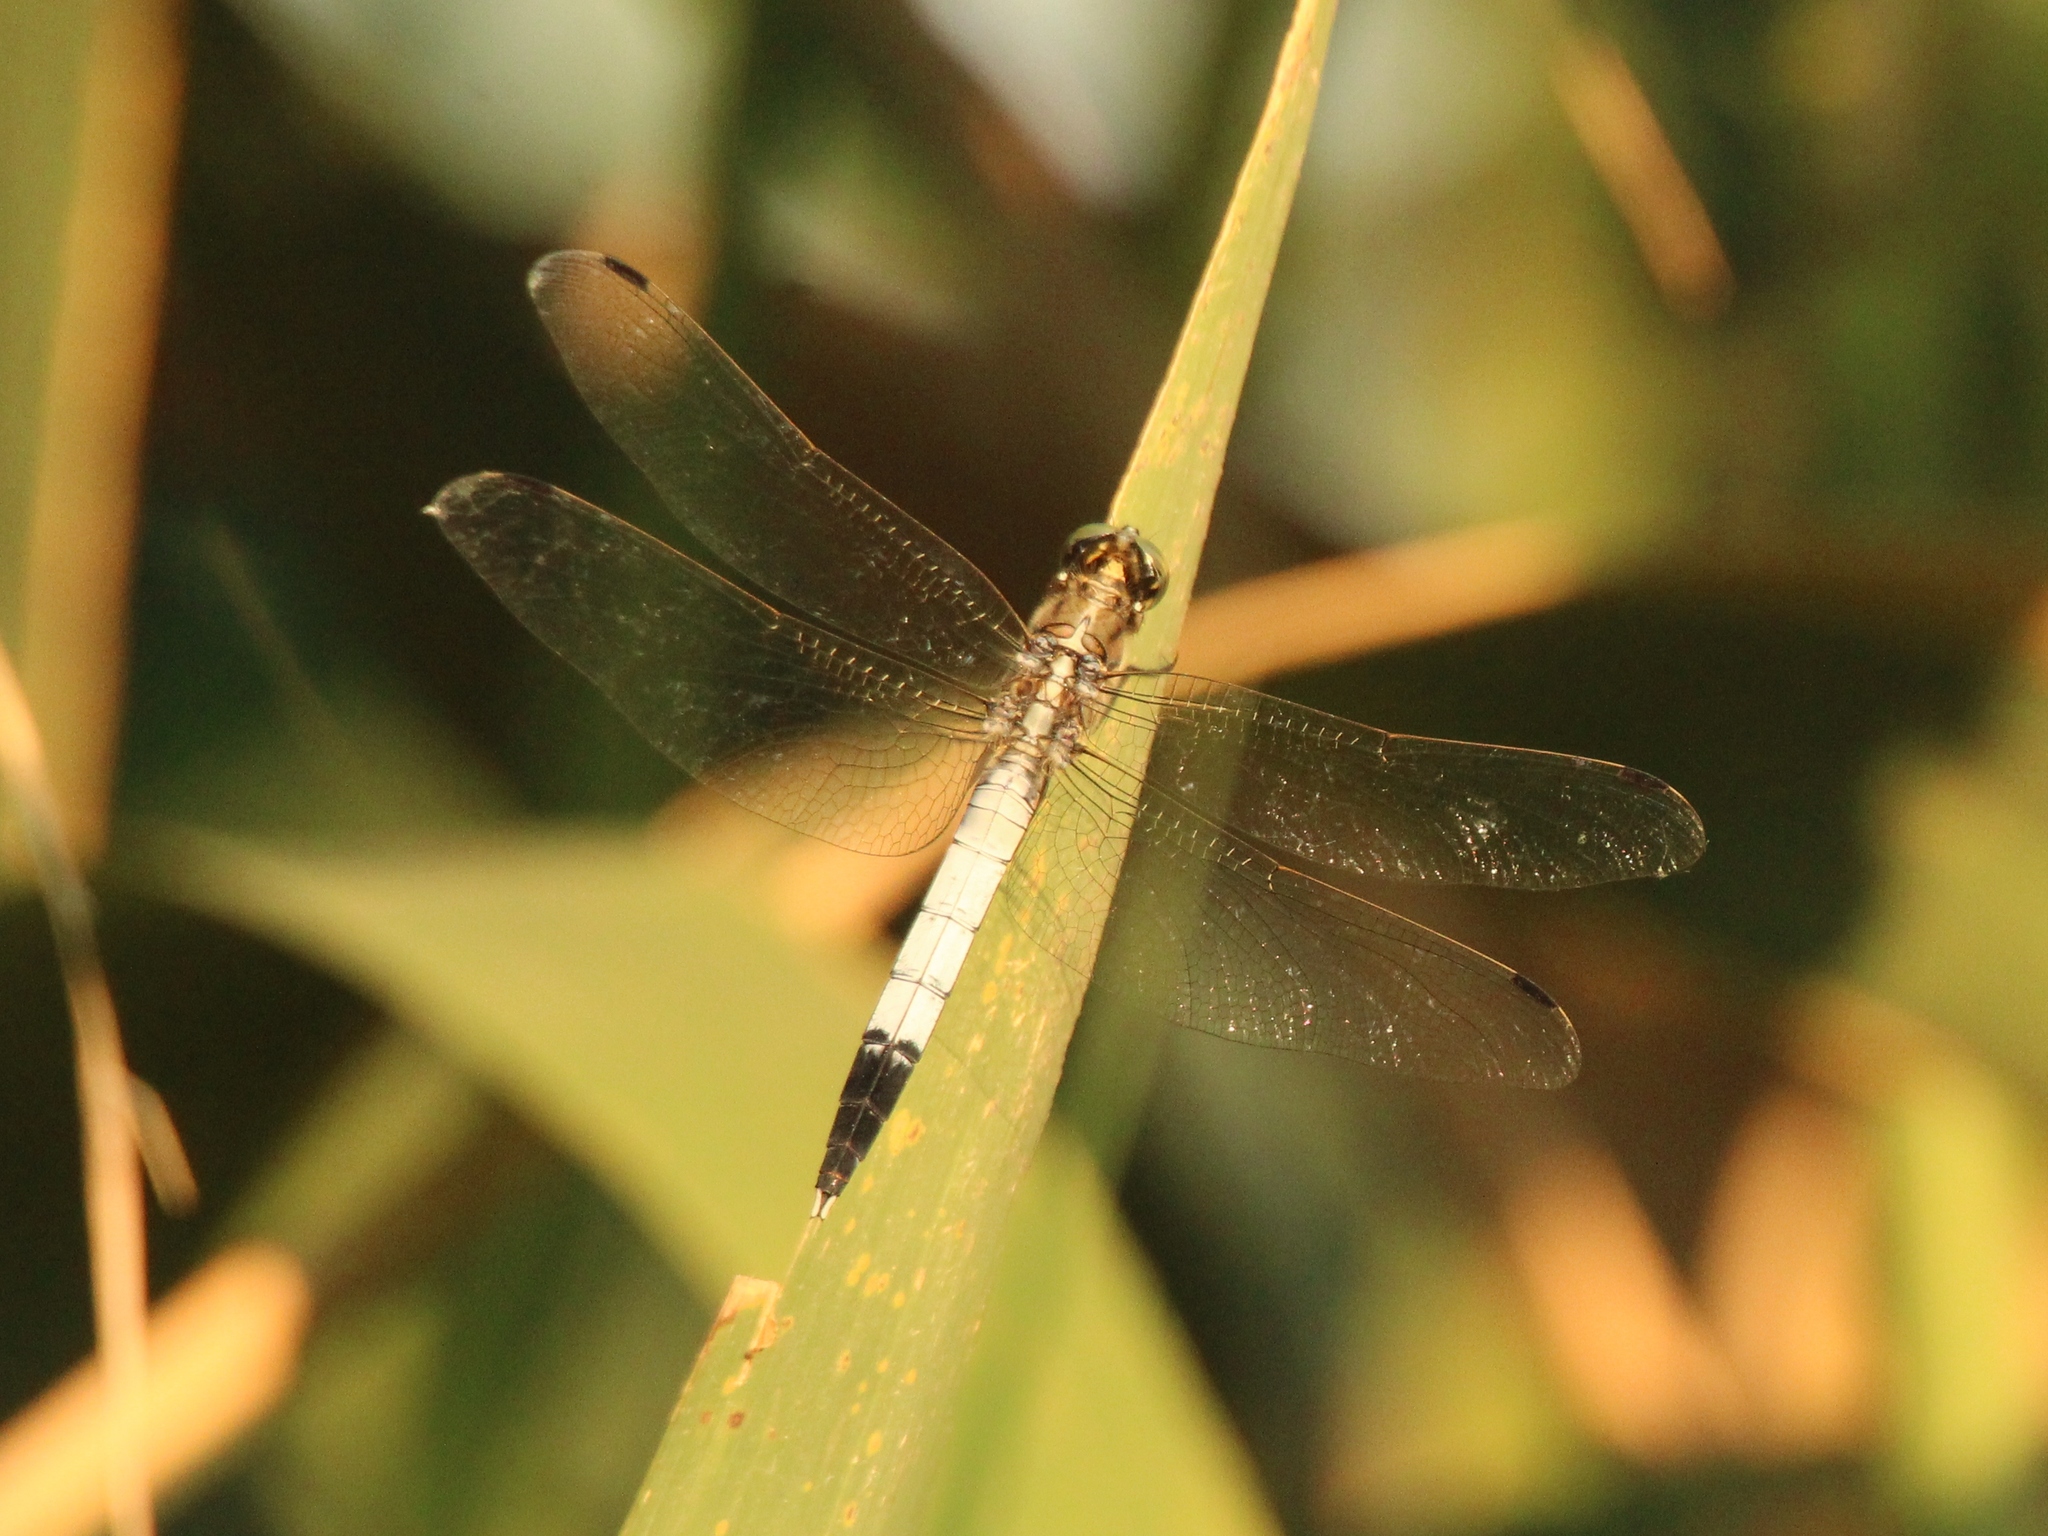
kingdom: Animalia
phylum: Arthropoda
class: Insecta
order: Odonata
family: Libellulidae
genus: Orthetrum
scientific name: Orthetrum albistylum
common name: White-tailed skimmer
